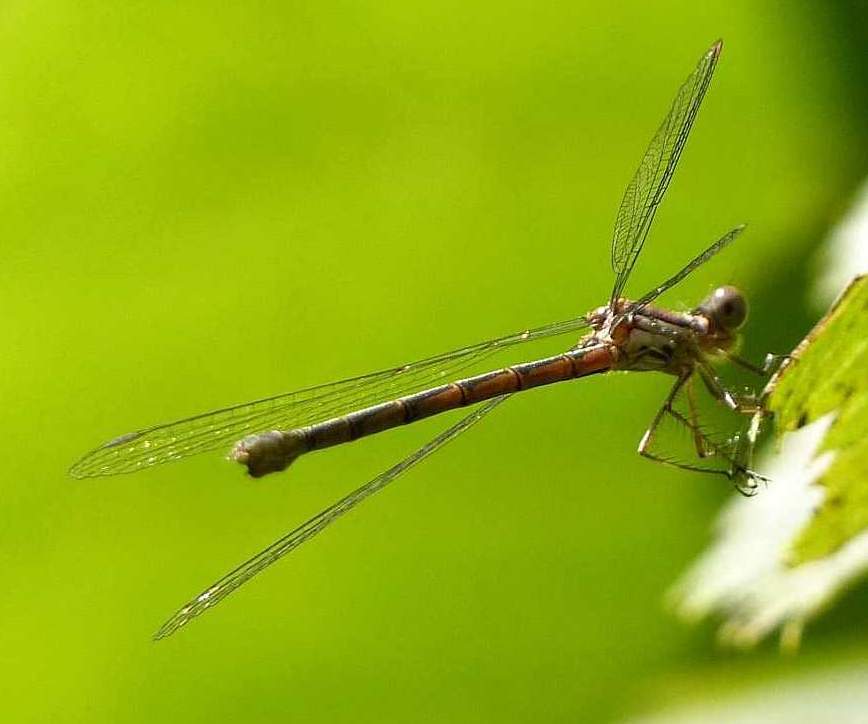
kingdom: Animalia
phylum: Arthropoda
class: Insecta
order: Odonata
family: Lestidae
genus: Lestes
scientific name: Lestes congener
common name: Spotted spreadwing
